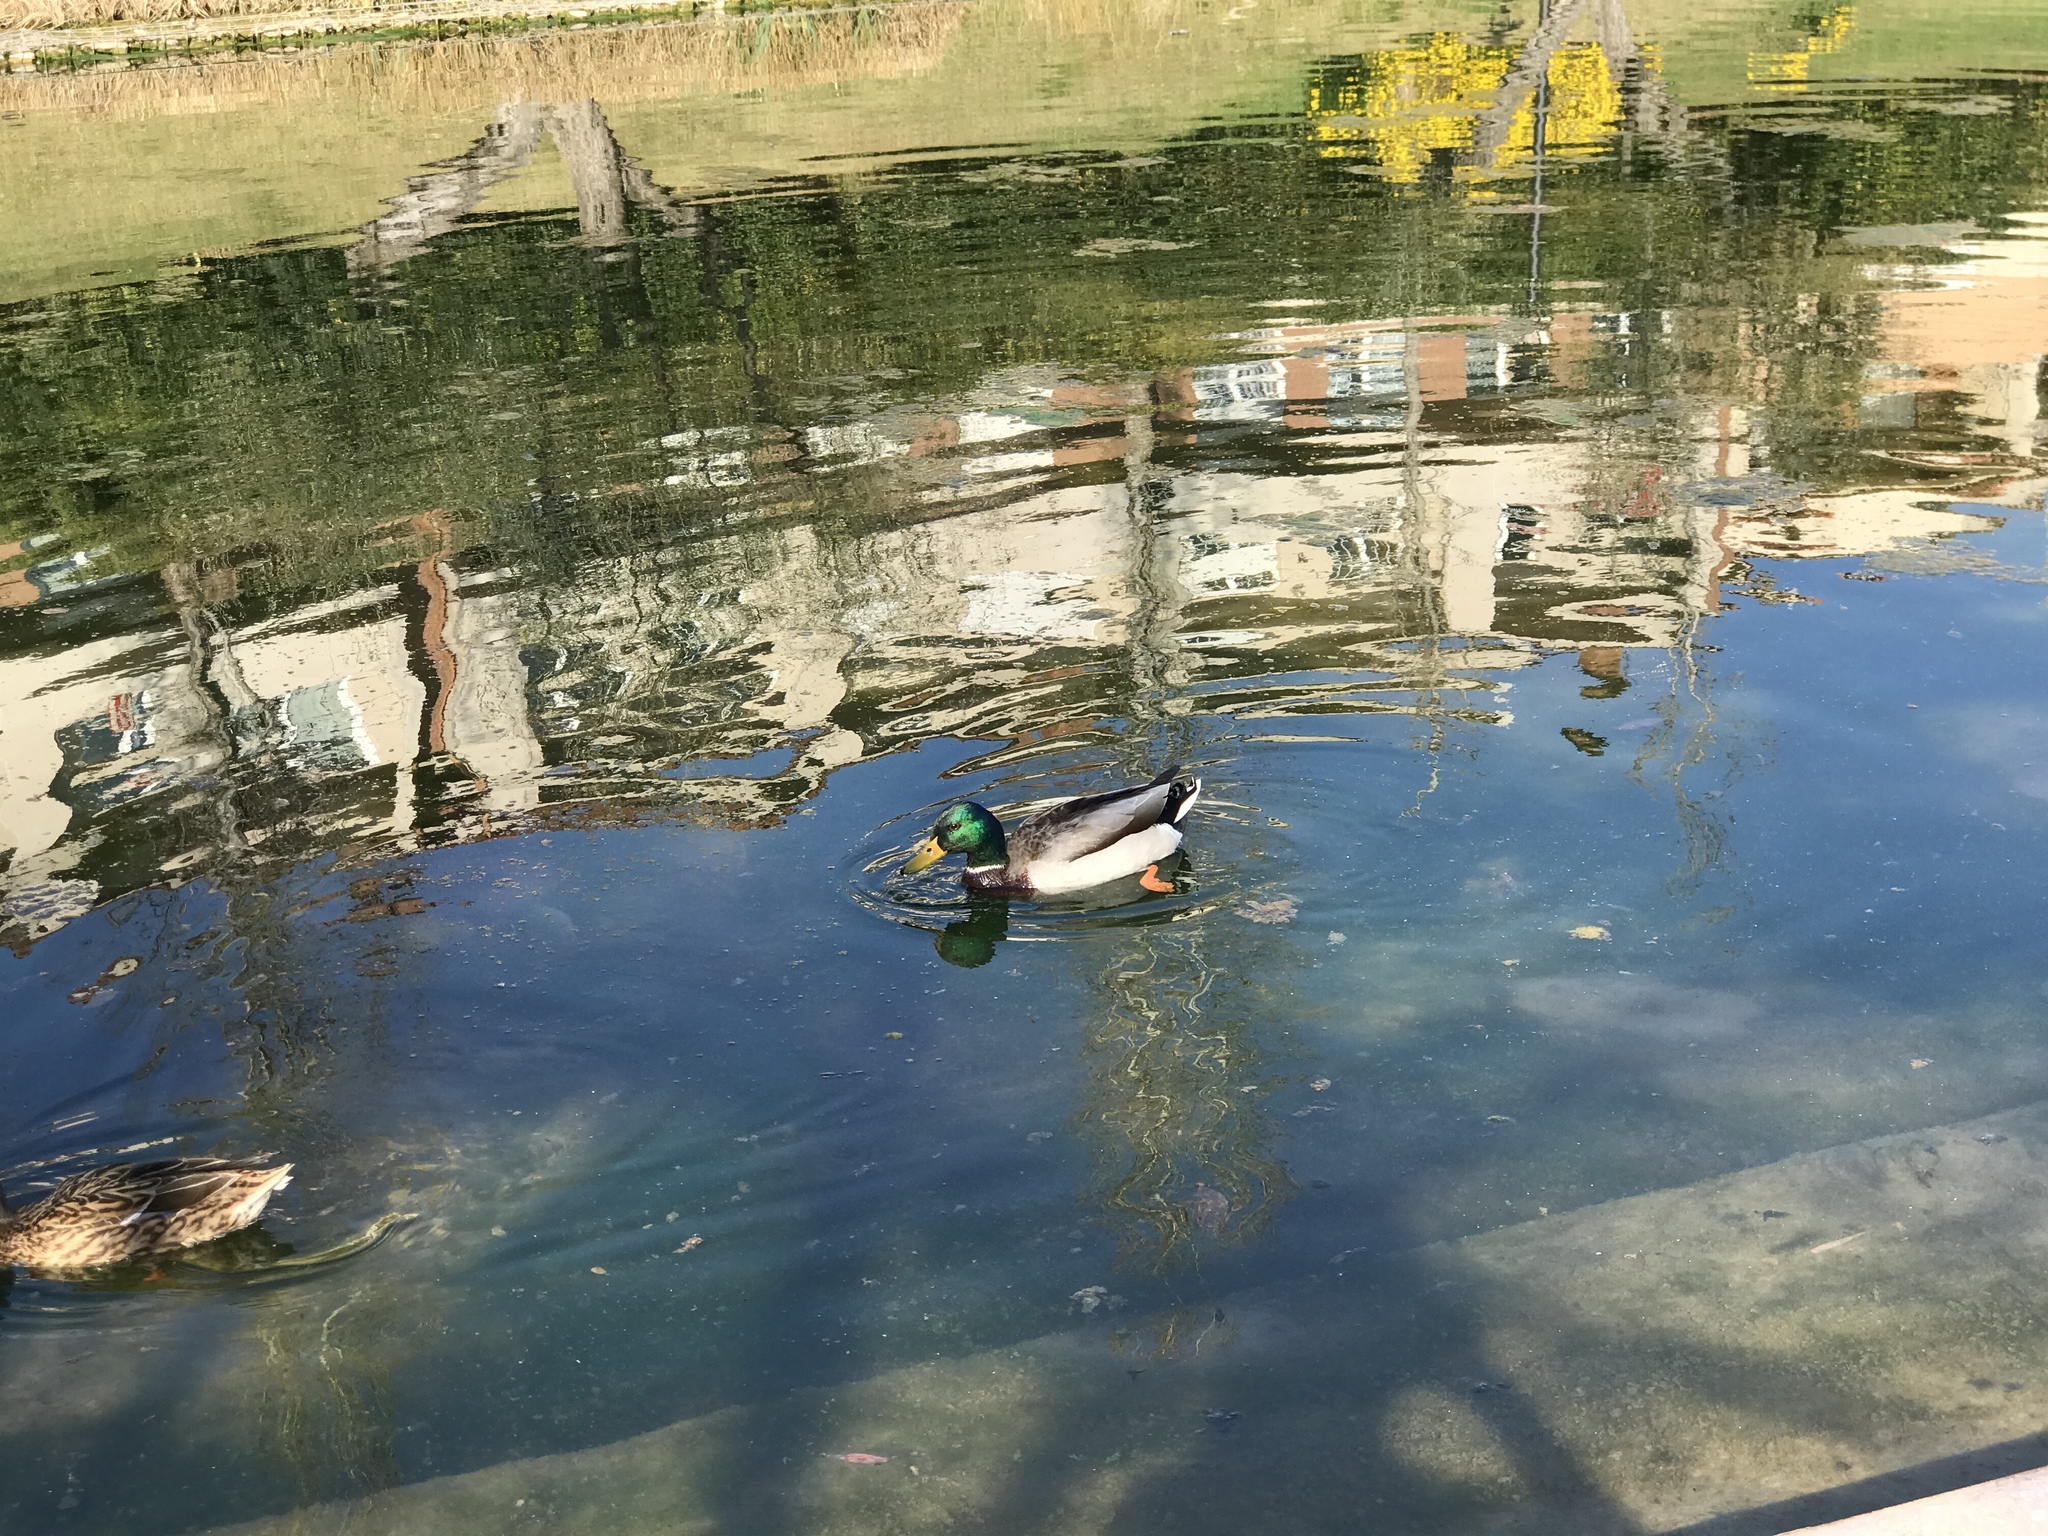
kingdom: Animalia
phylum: Chordata
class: Aves
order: Anseriformes
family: Anatidae
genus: Anas
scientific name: Anas platyrhynchos
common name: Mallard
